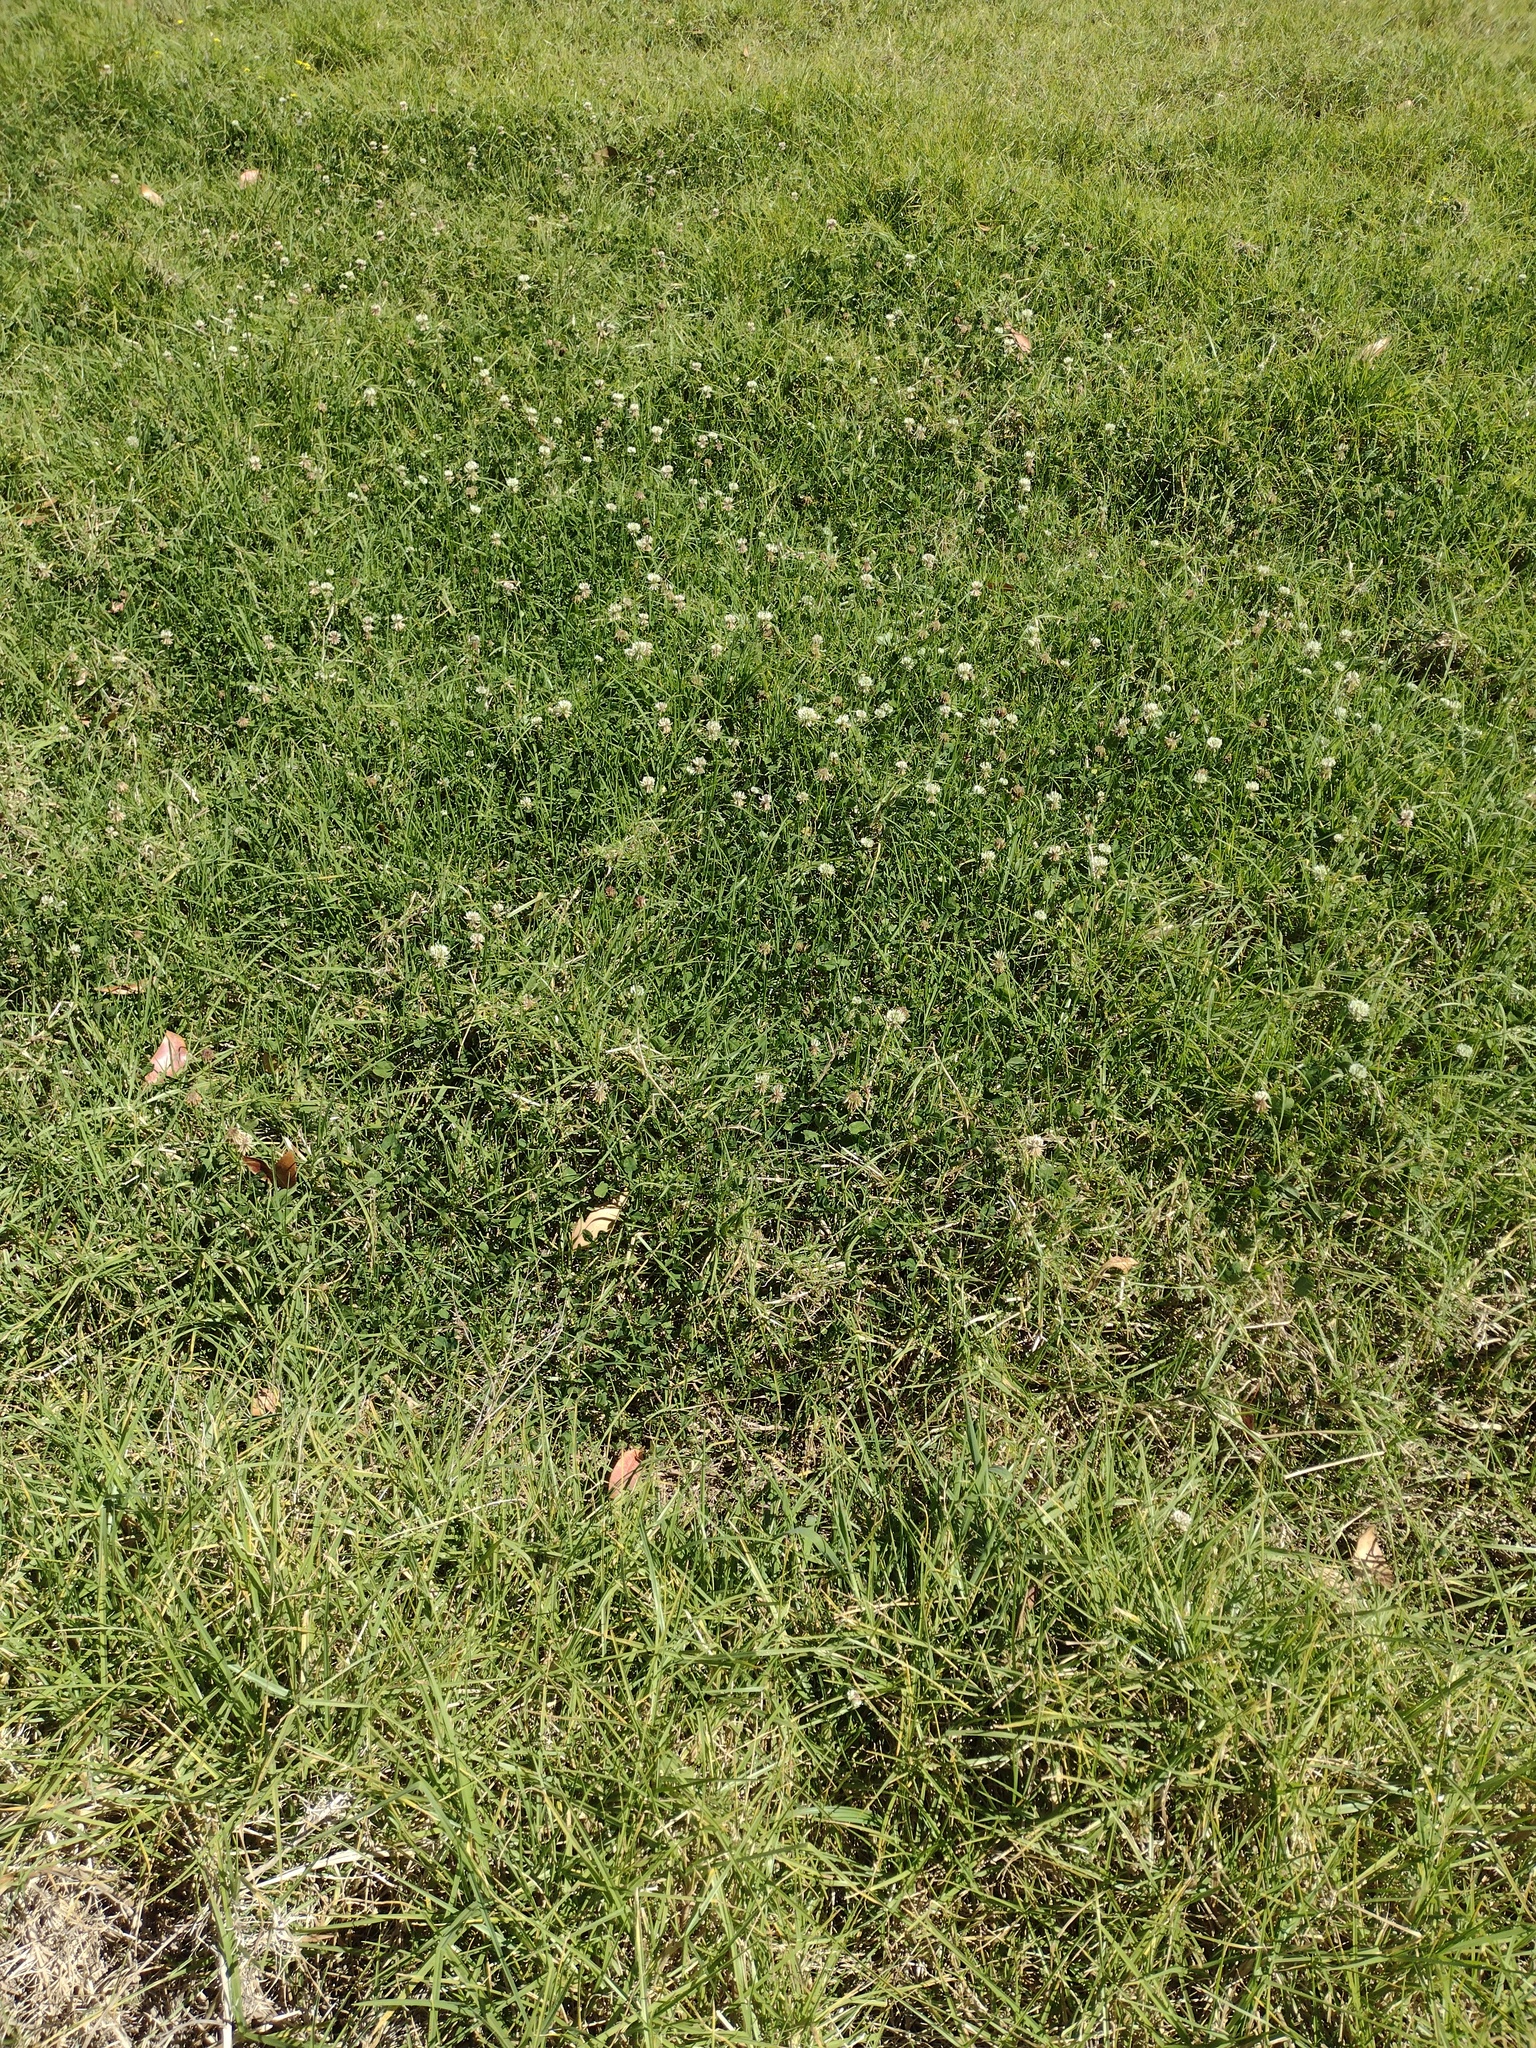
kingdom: Plantae
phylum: Tracheophyta
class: Magnoliopsida
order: Fabales
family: Fabaceae
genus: Trifolium
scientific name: Trifolium repens
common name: White clover
